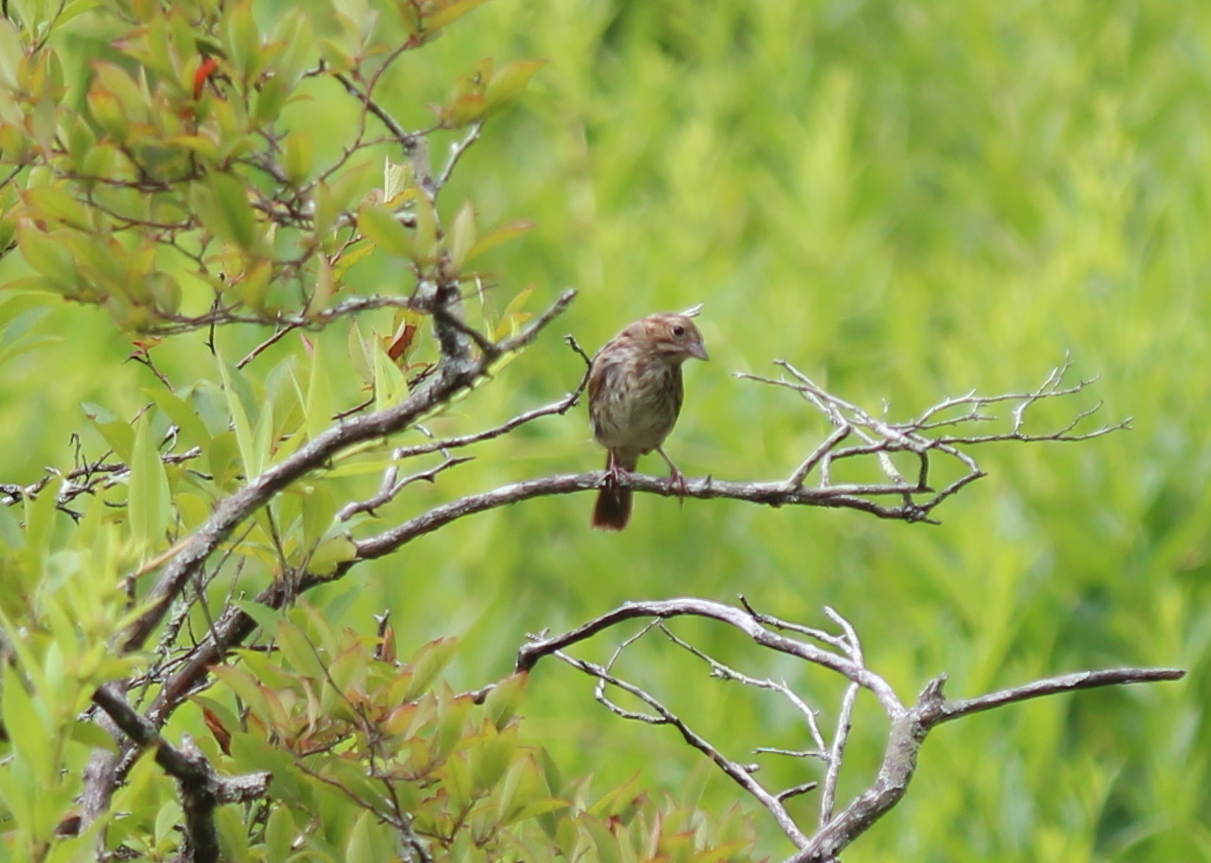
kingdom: Animalia
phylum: Chordata
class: Aves
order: Passeriformes
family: Passerellidae
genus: Melospiza
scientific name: Melospiza melodia
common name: Song sparrow
